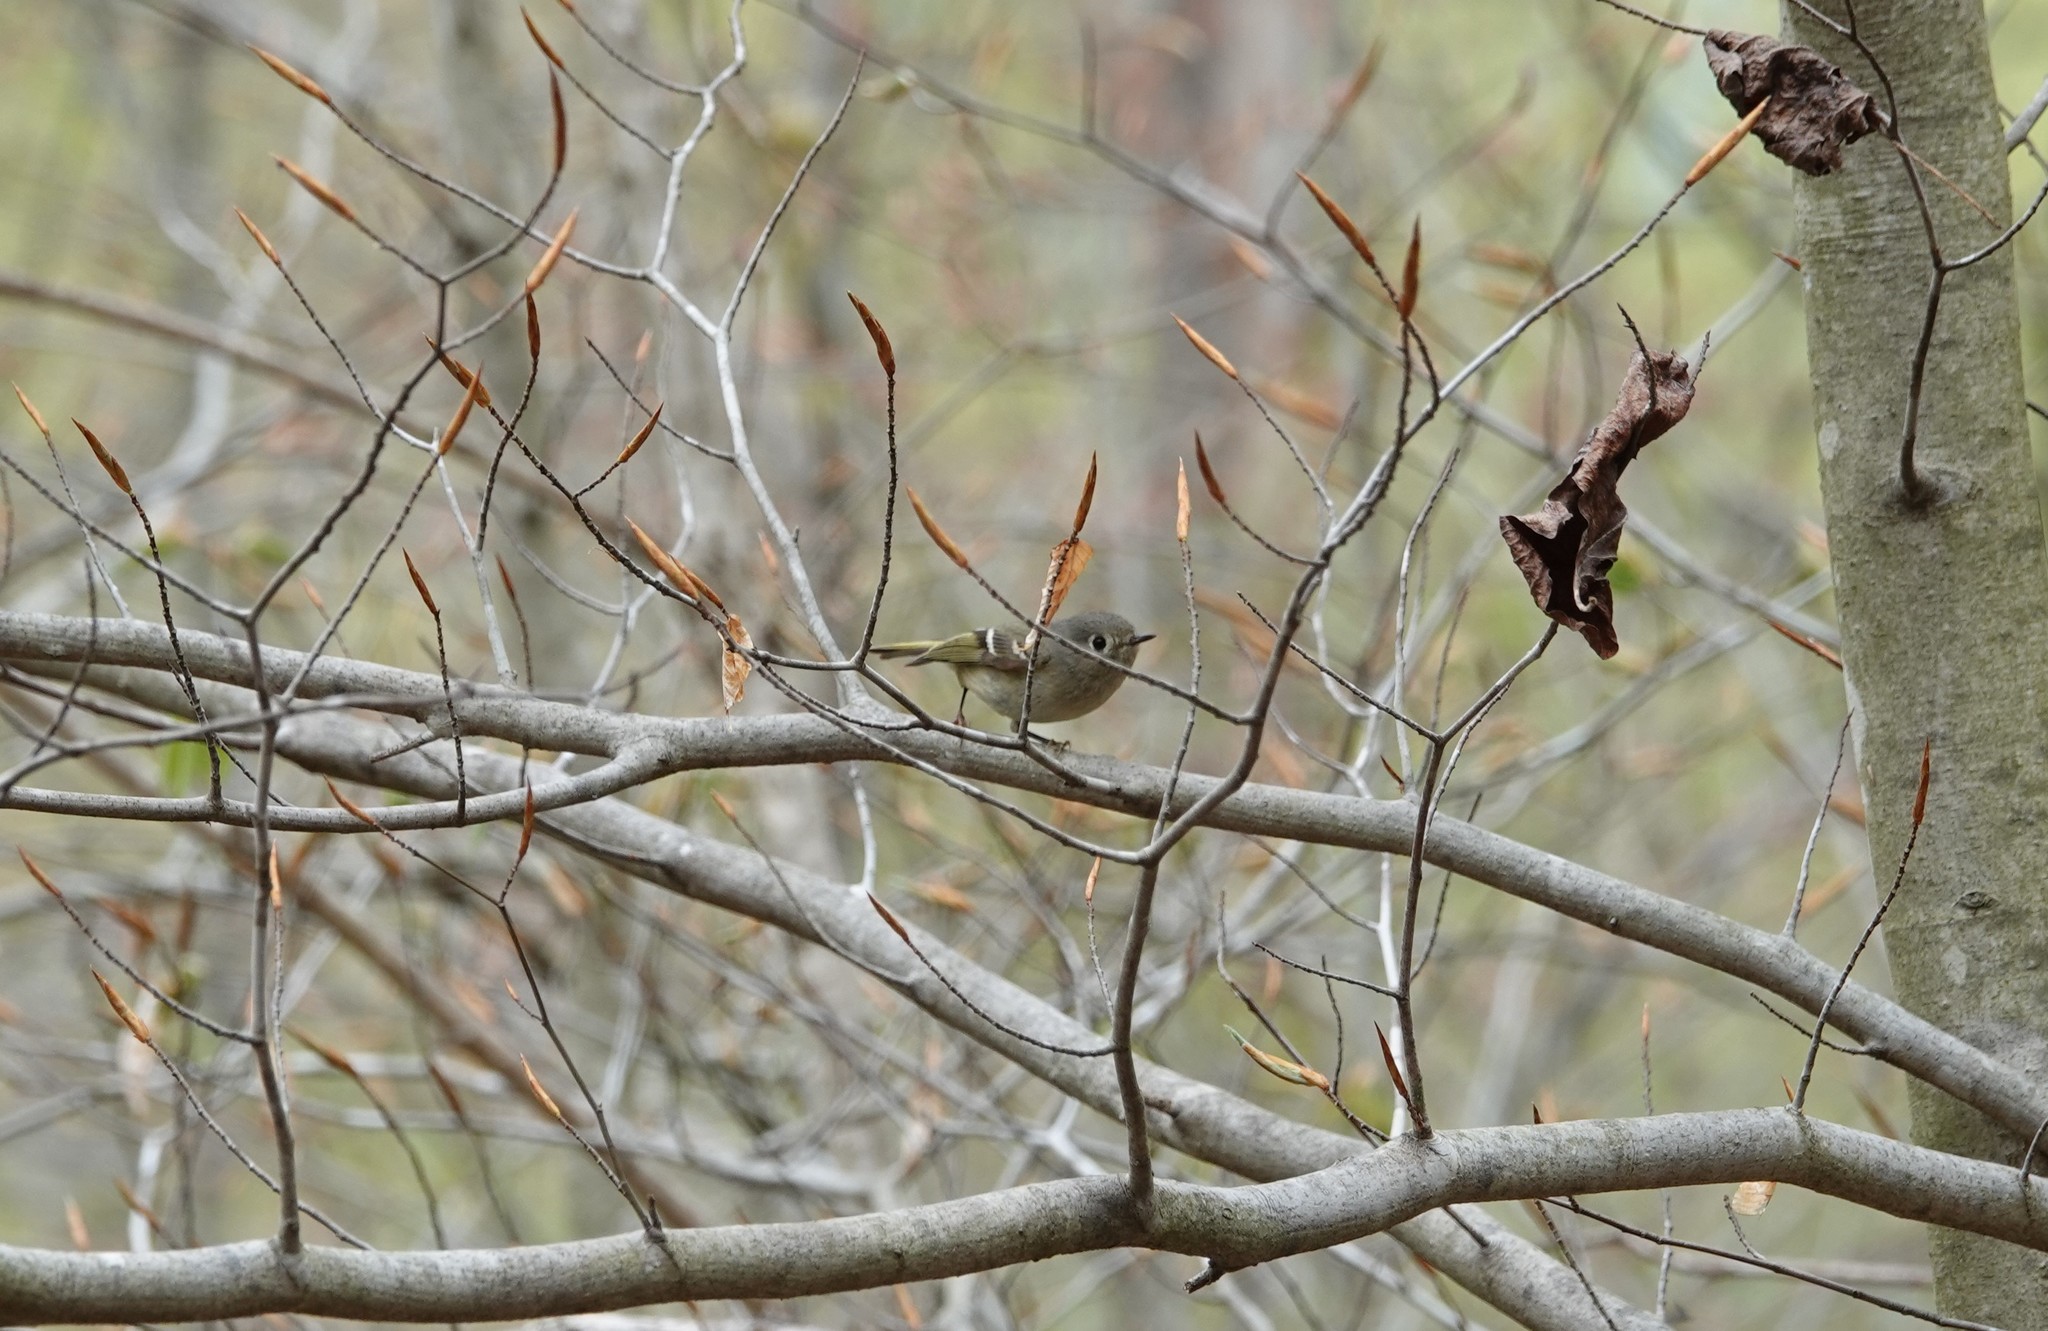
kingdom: Animalia
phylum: Chordata
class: Aves
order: Passeriformes
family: Regulidae
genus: Regulus
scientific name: Regulus calendula
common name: Ruby-crowned kinglet
